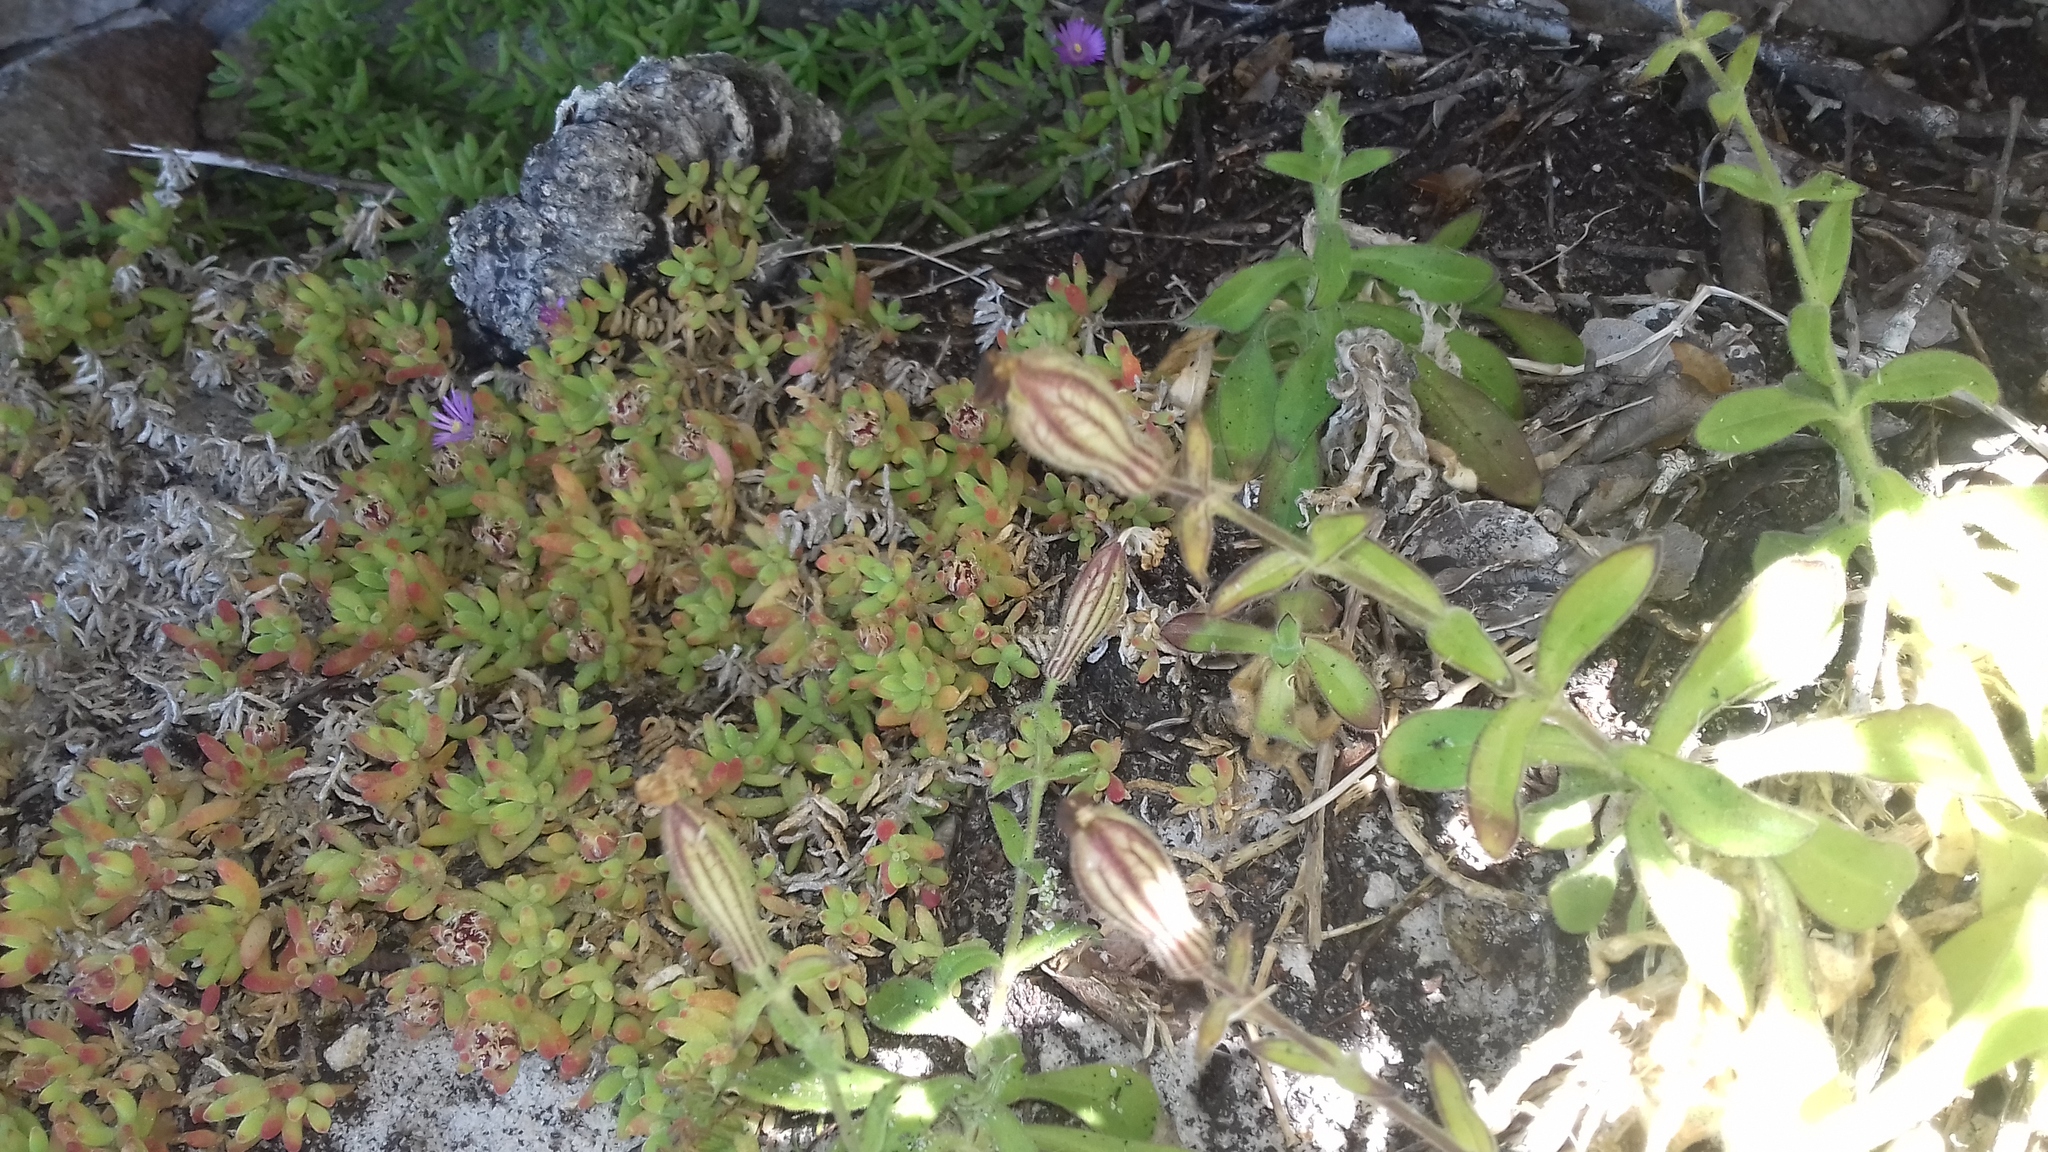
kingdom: Plantae
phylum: Tracheophyta
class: Magnoliopsida
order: Caryophyllales
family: Caryophyllaceae
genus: Silene
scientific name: Silene undulata
